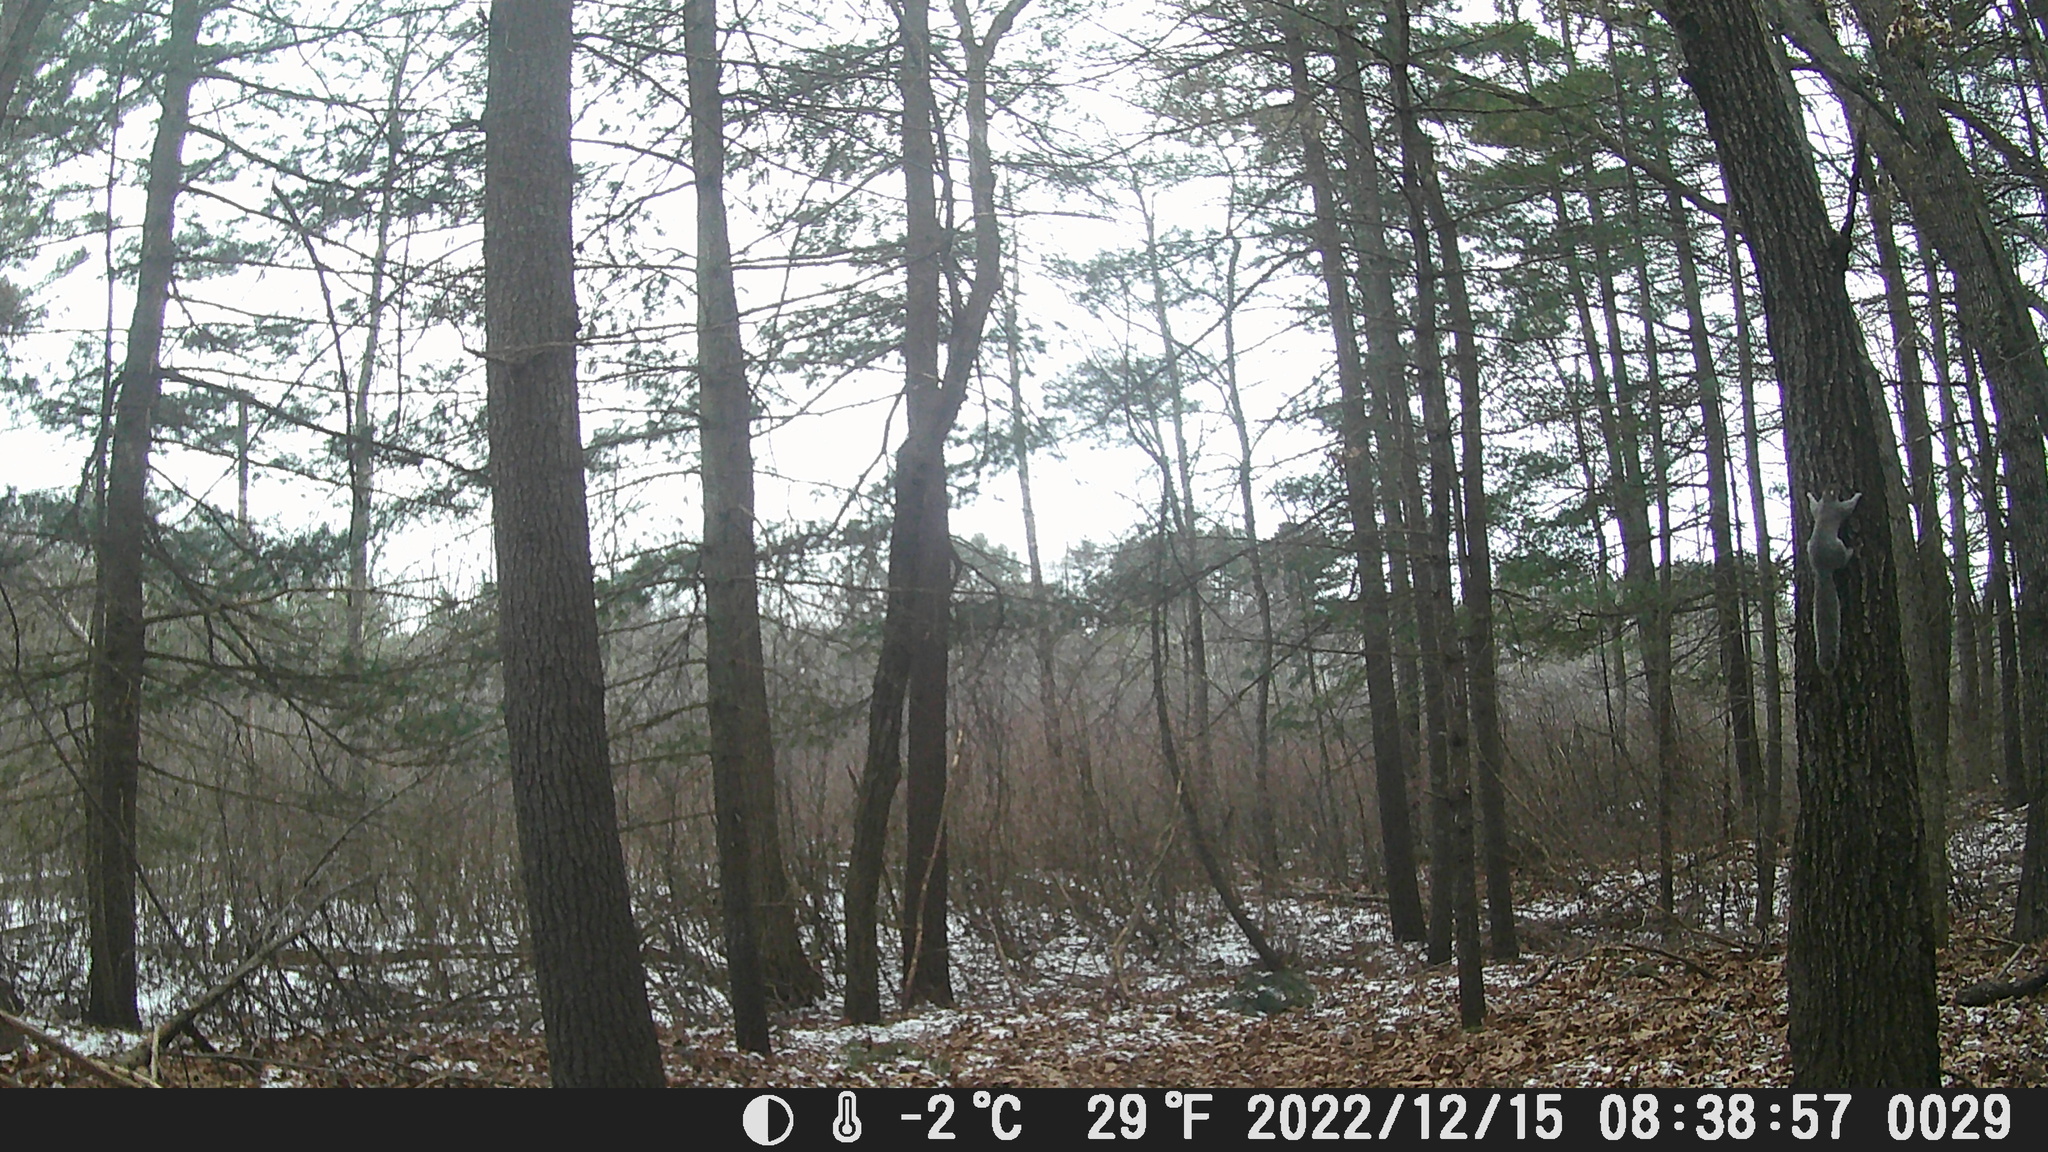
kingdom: Animalia
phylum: Chordata
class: Mammalia
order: Rodentia
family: Sciuridae
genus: Sciurus
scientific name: Sciurus carolinensis
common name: Eastern gray squirrel
